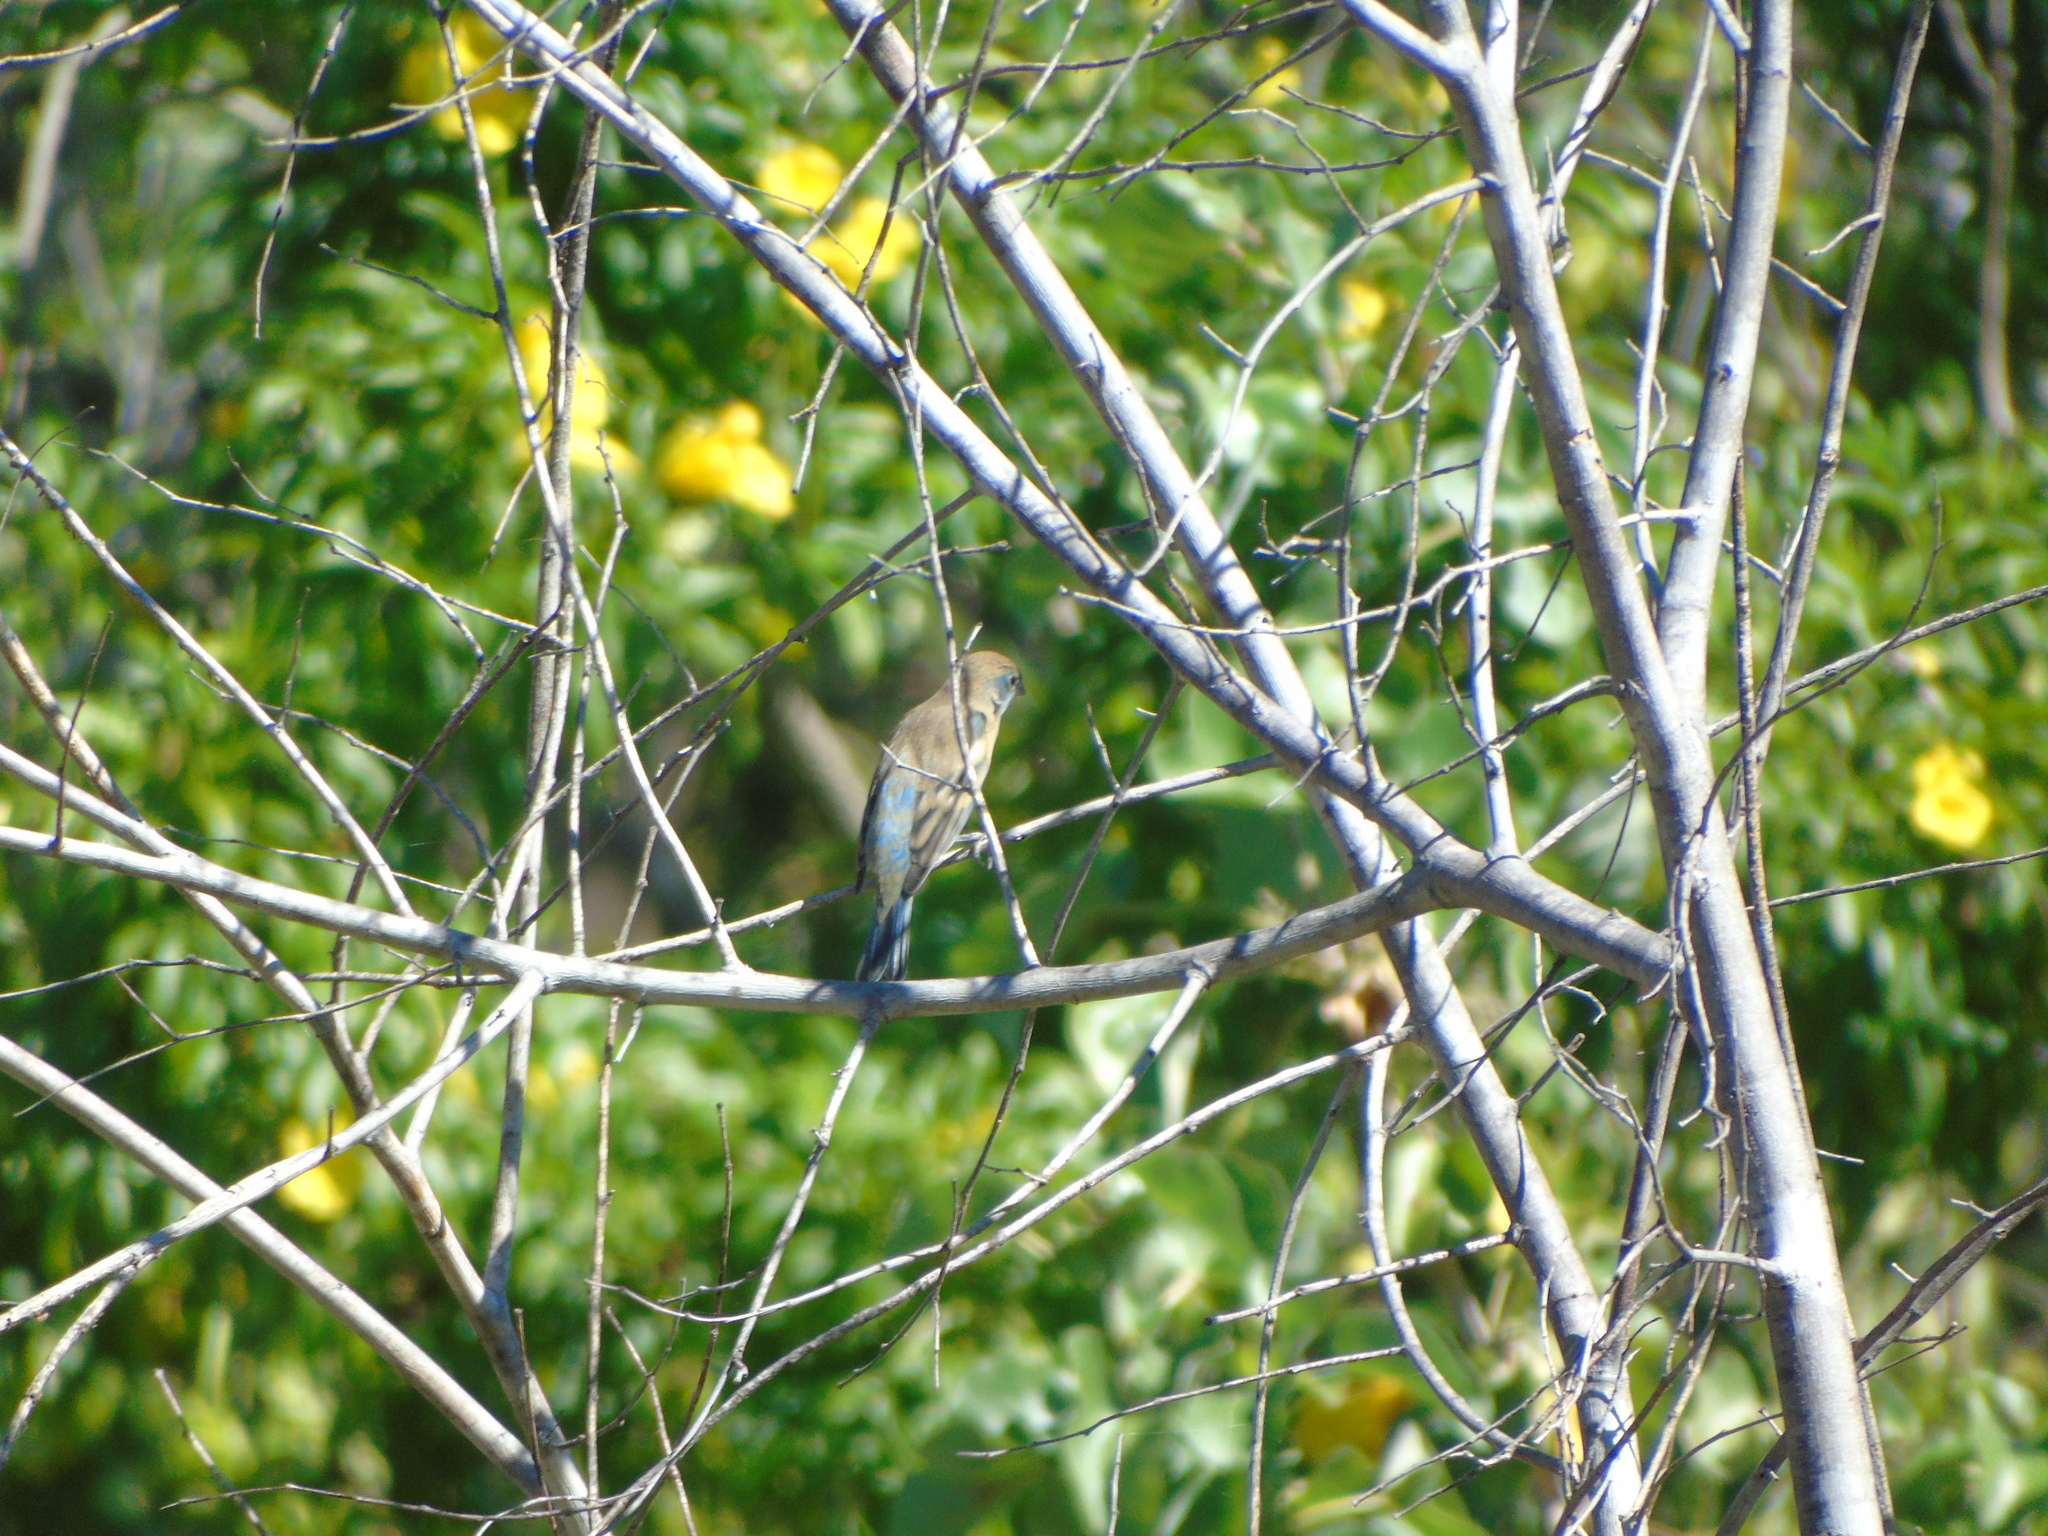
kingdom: Animalia
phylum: Chordata
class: Aves
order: Passeriformes
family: Cardinalidae
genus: Passerina
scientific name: Passerina amoena
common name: Lazuli bunting
